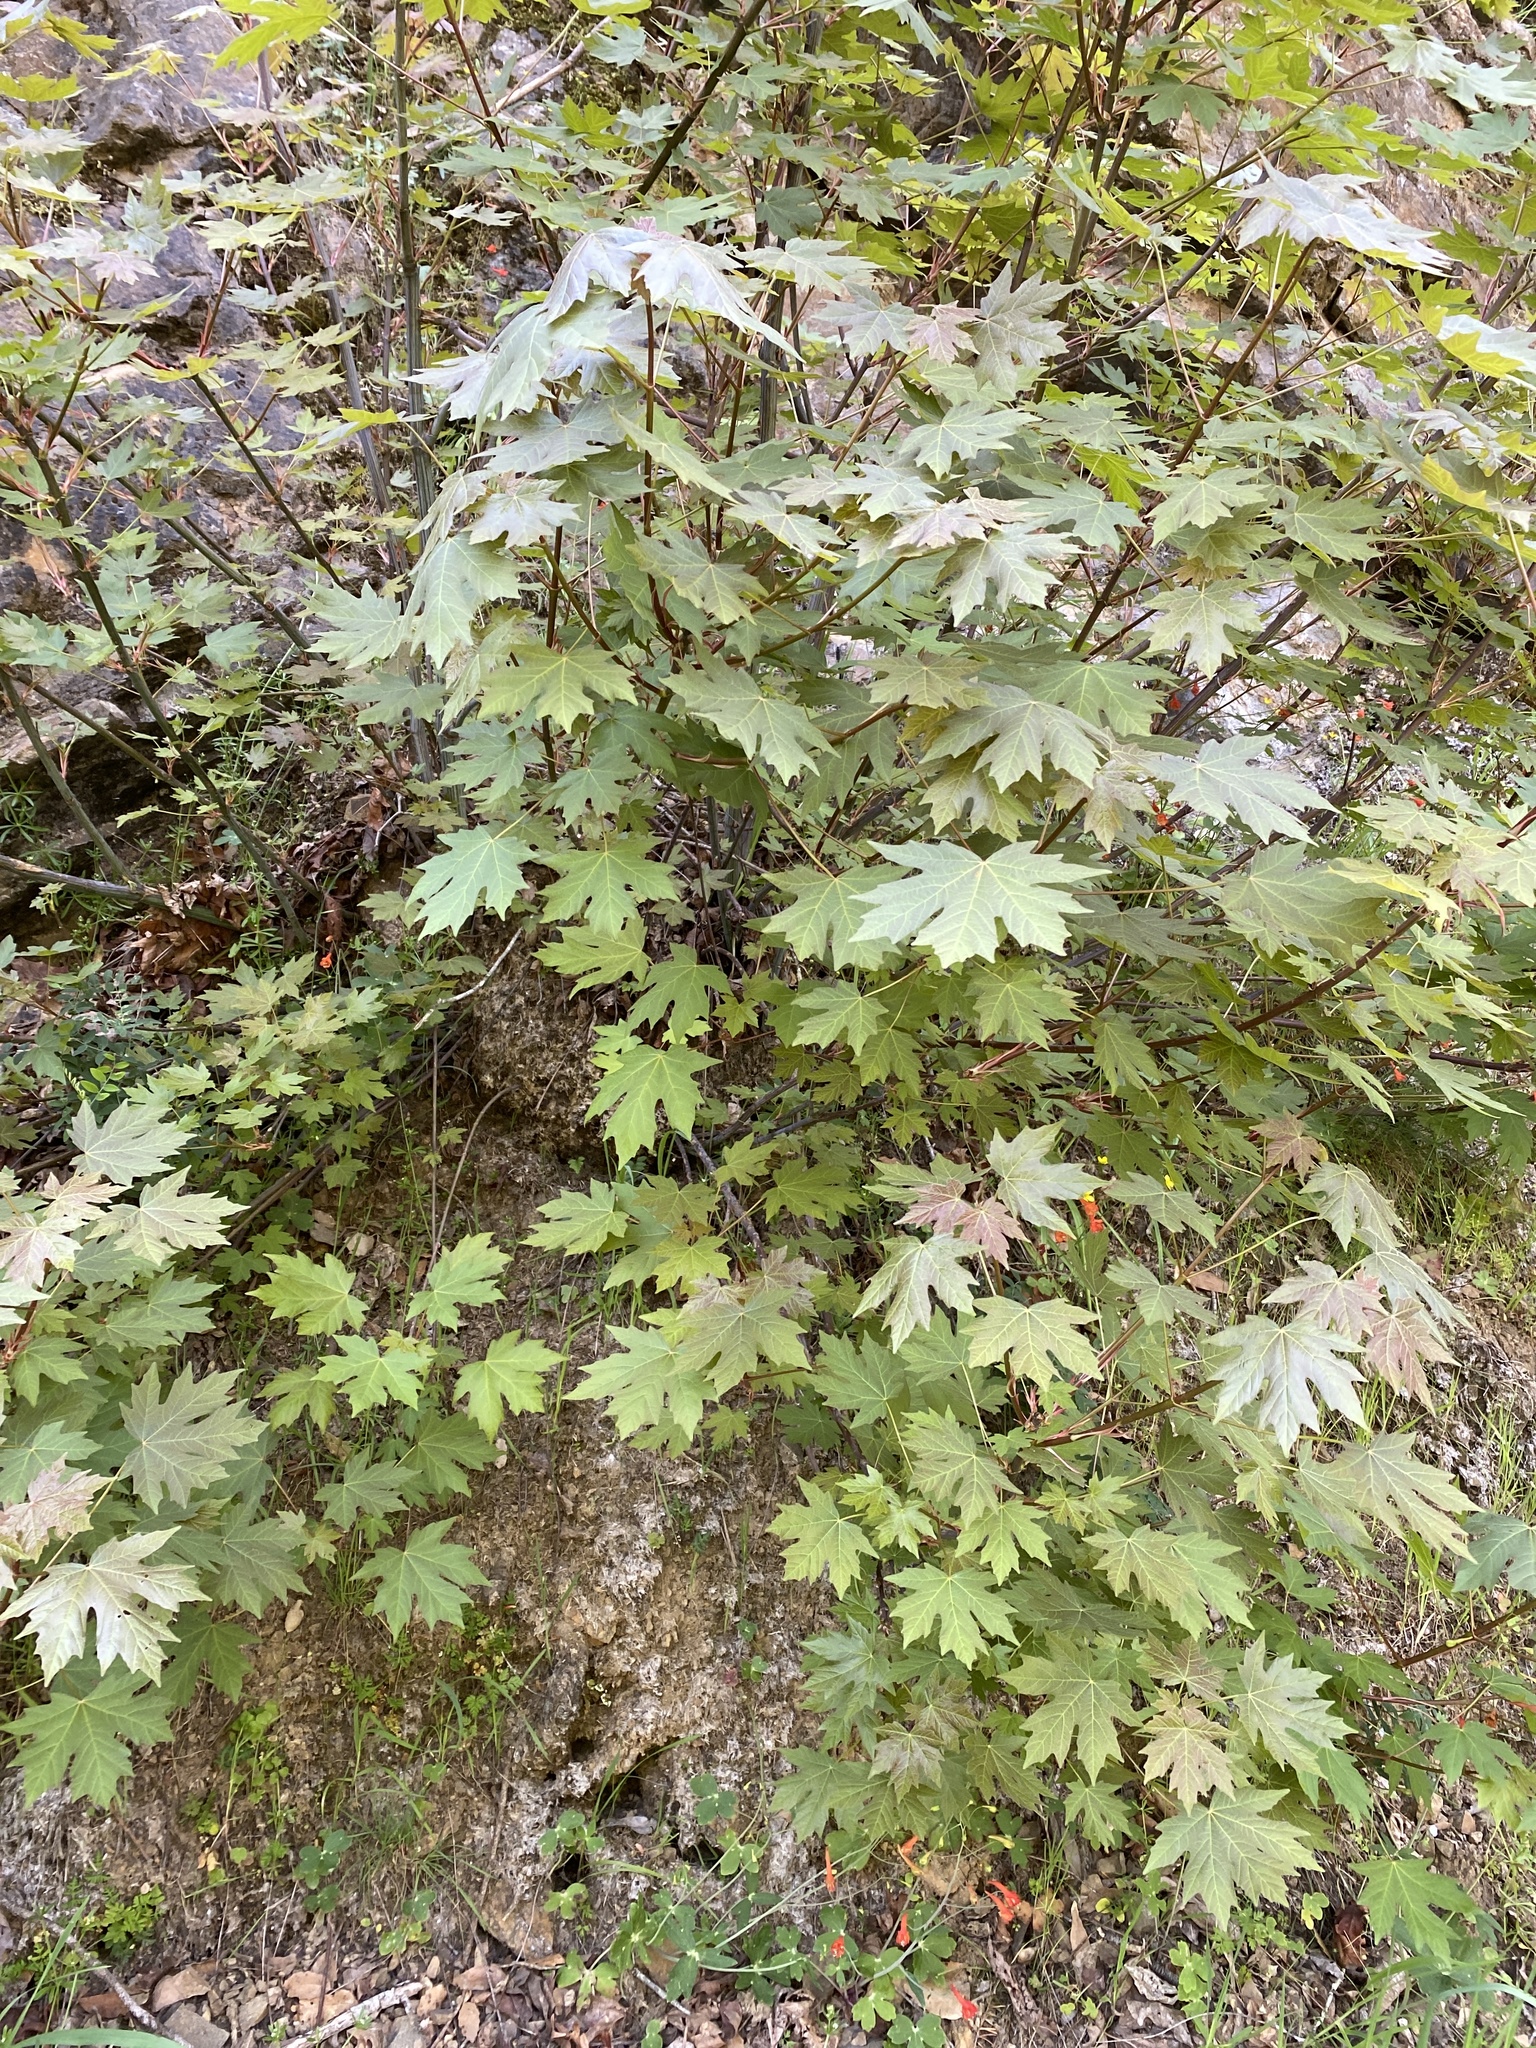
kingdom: Plantae
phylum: Tracheophyta
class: Magnoliopsida
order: Sapindales
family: Sapindaceae
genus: Acer
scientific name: Acer macrophyllum
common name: Oregon maple
